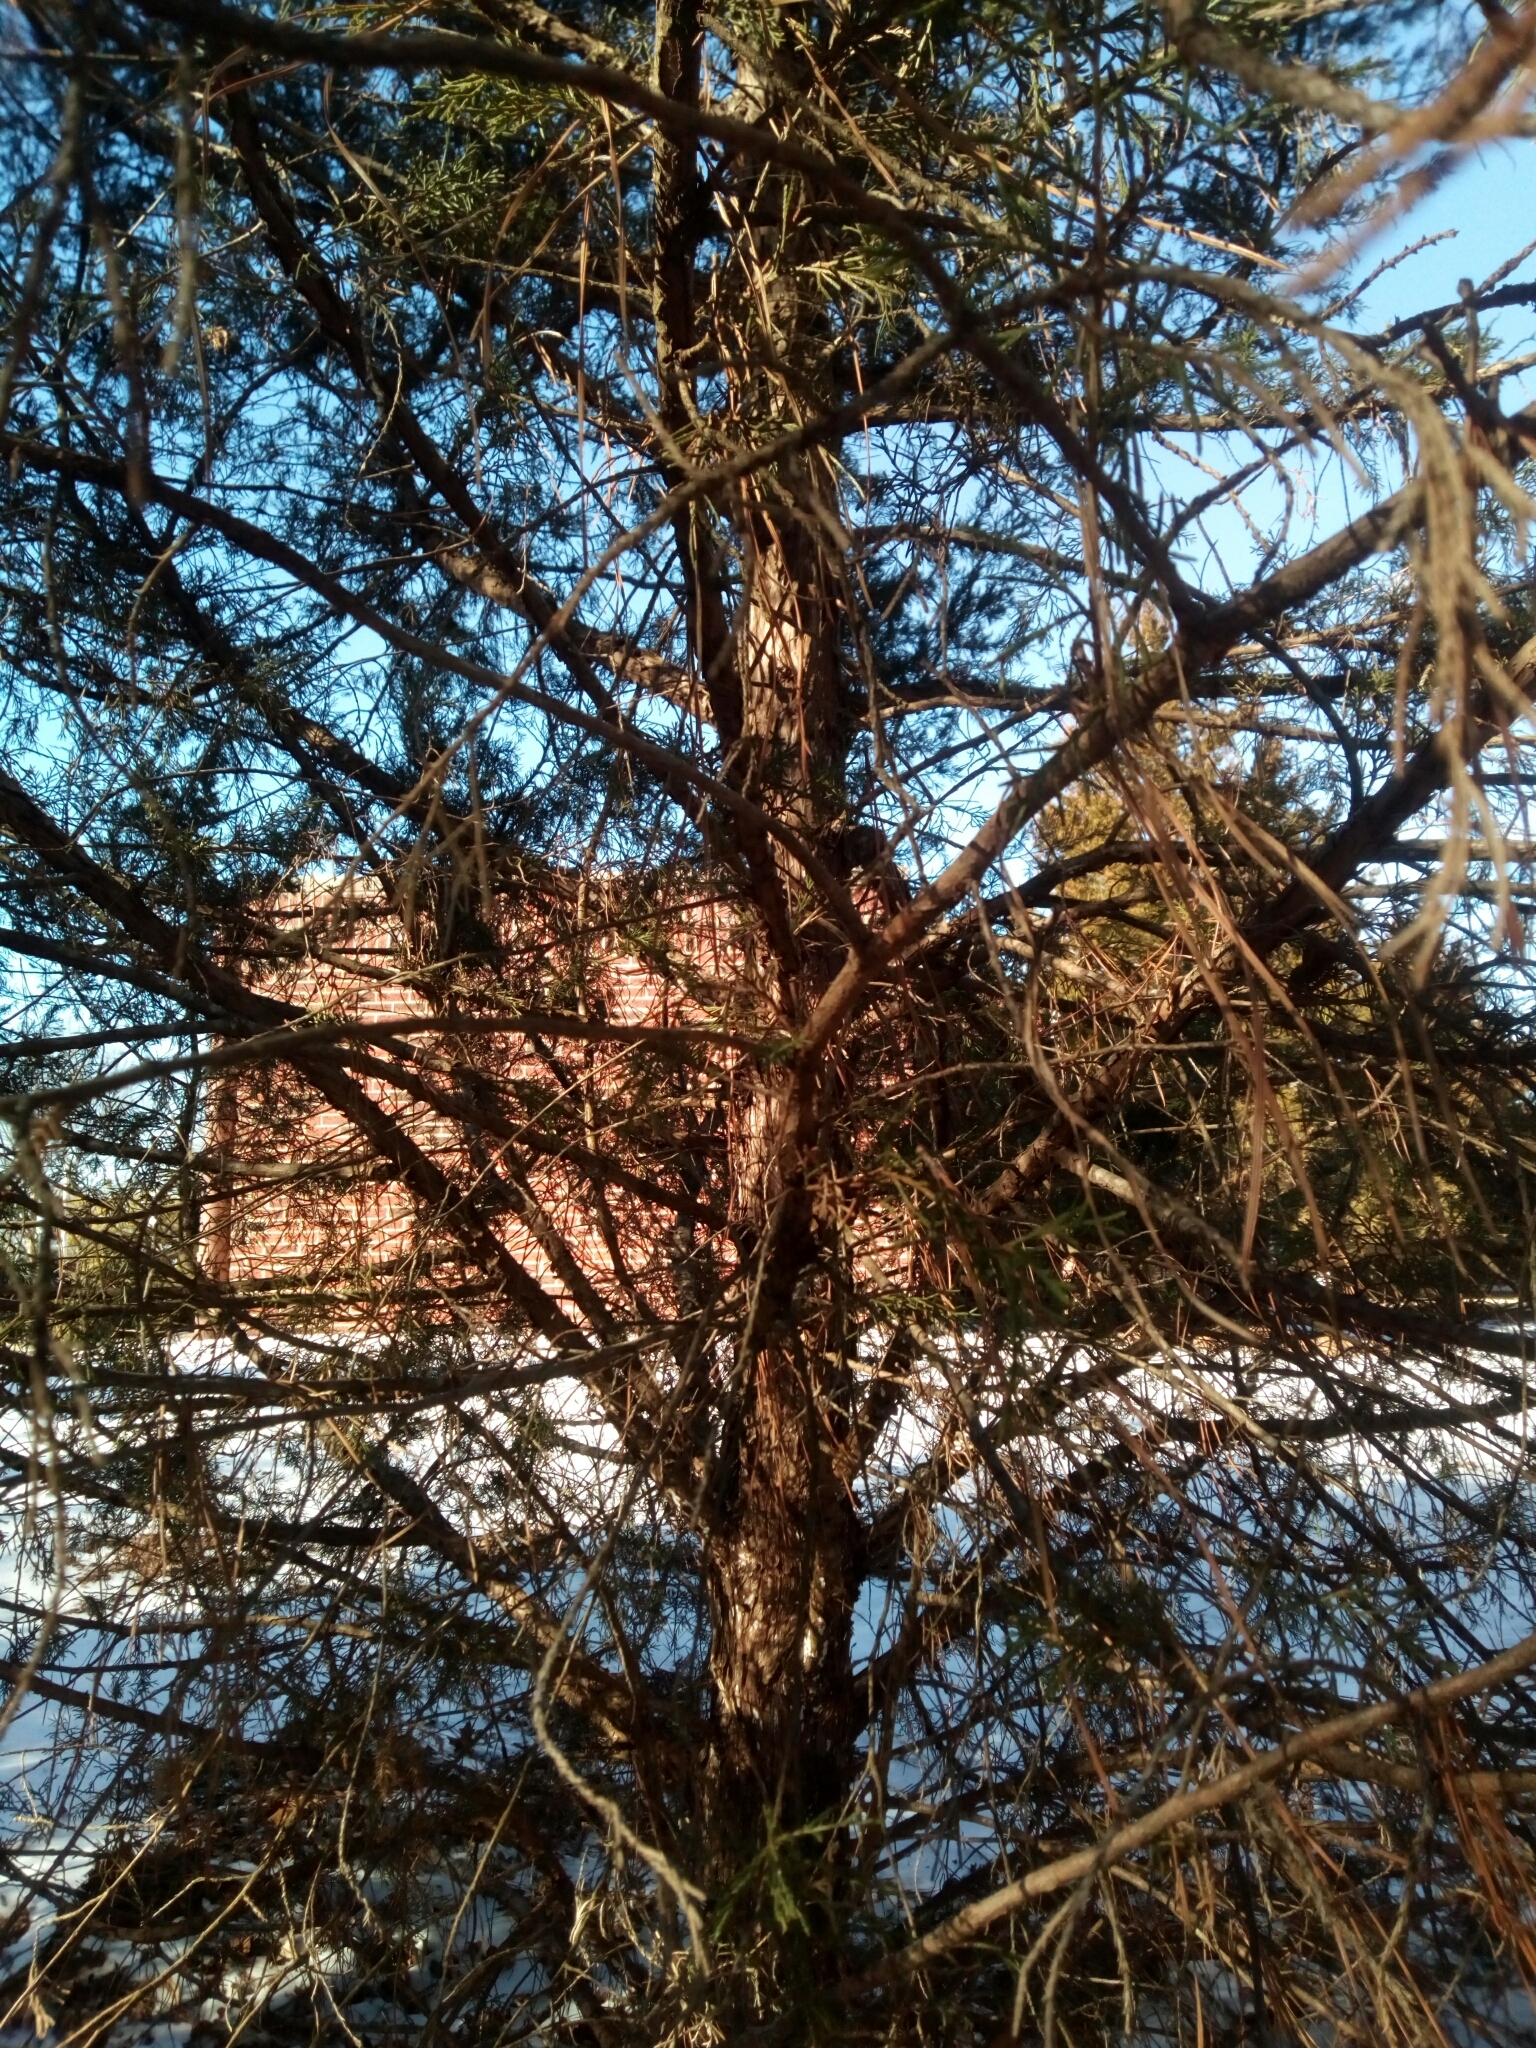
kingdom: Plantae
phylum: Tracheophyta
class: Pinopsida
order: Pinales
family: Cupressaceae
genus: Juniperus
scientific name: Juniperus virginiana
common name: Red juniper
